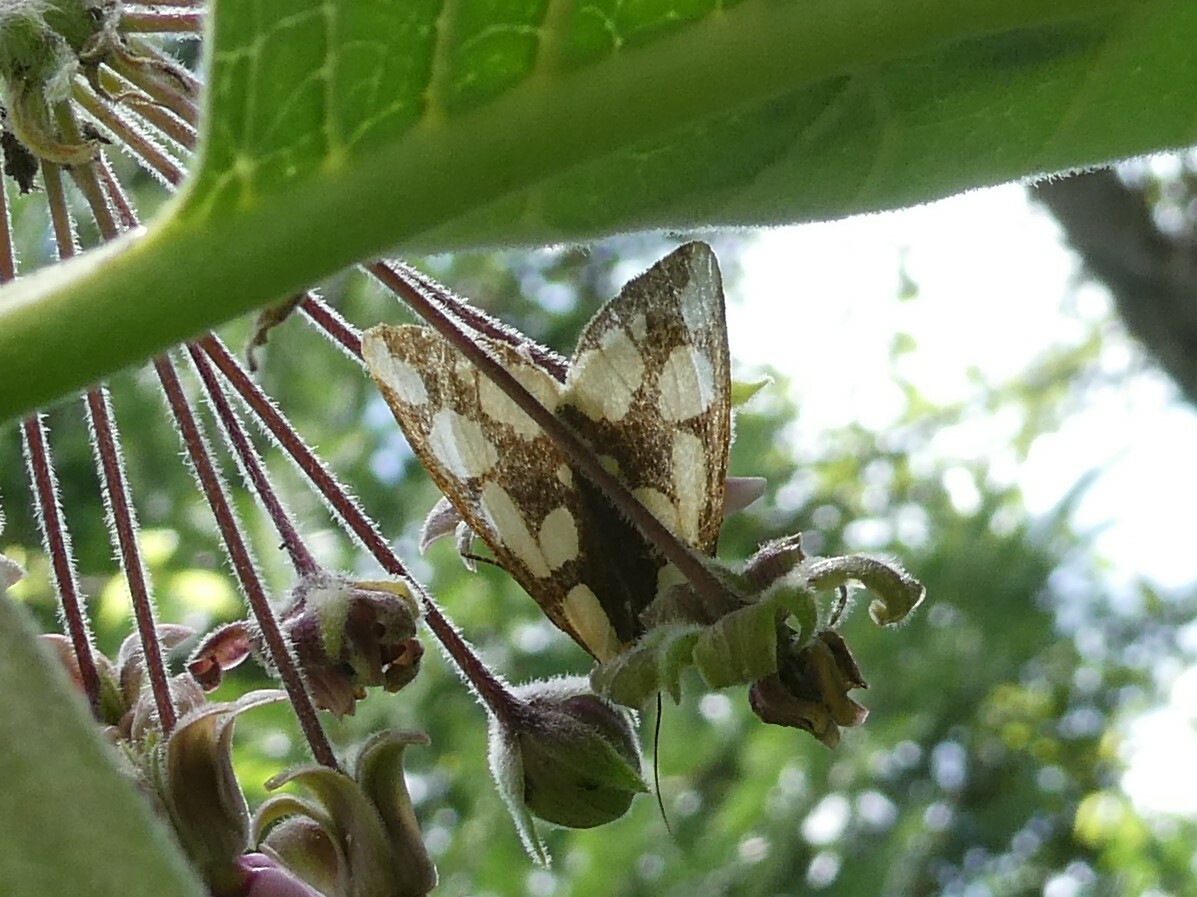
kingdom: Animalia
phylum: Arthropoda
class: Insecta
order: Lepidoptera
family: Erebidae
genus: Haploa
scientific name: Haploa confusa
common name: Confused haploa moth
